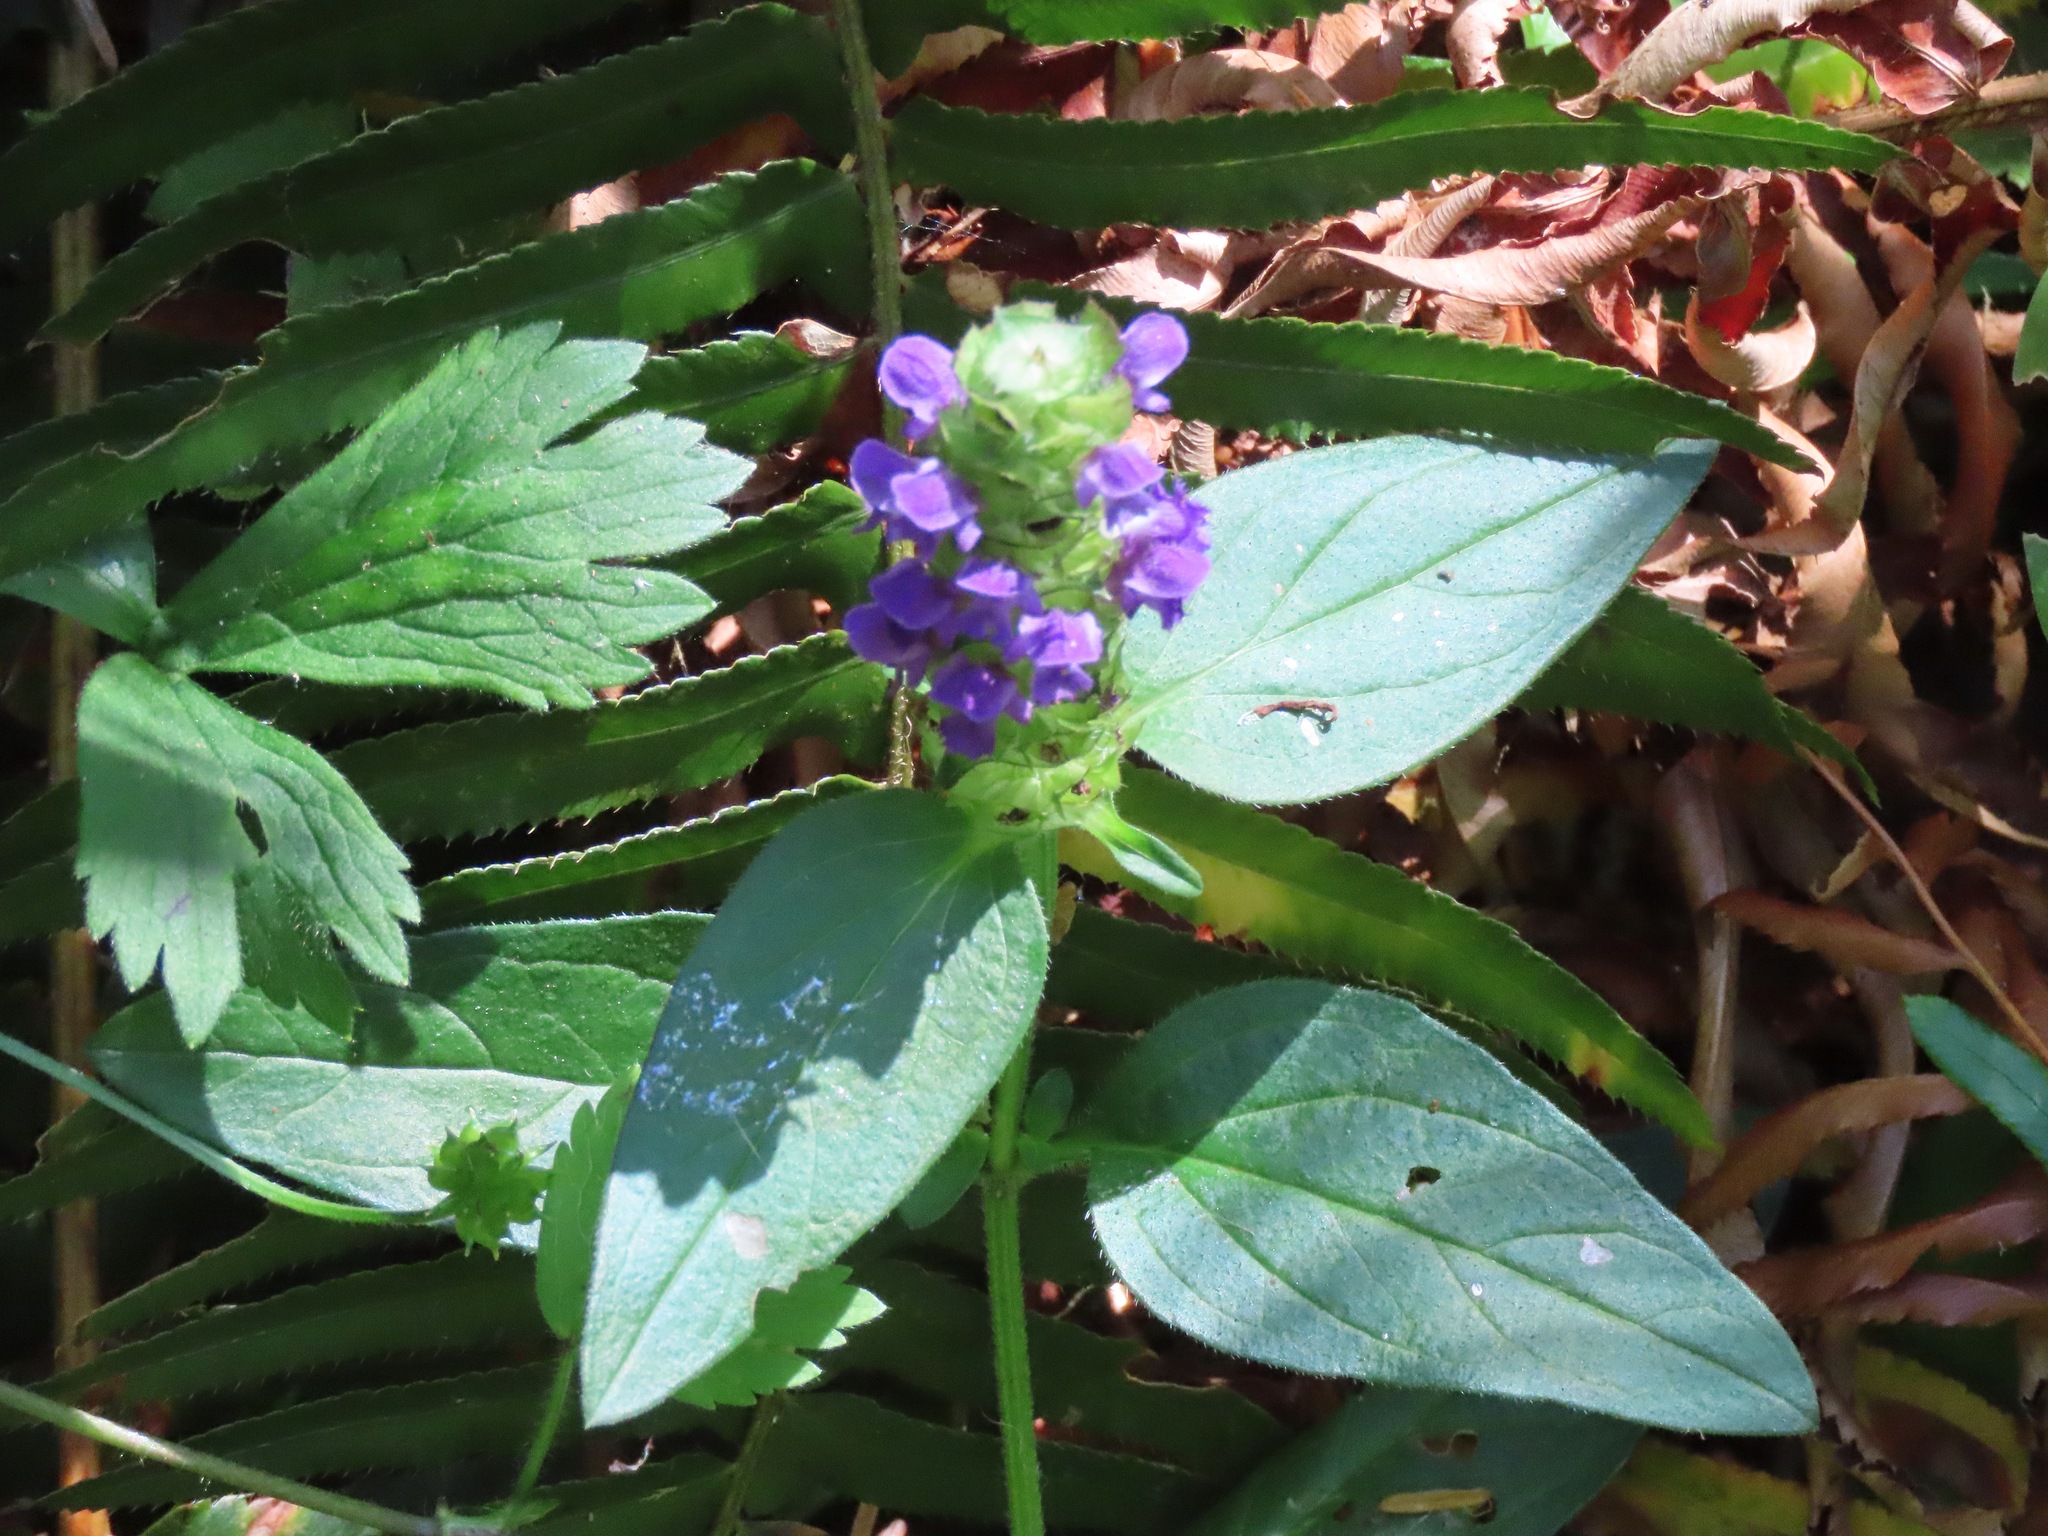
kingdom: Plantae
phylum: Tracheophyta
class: Magnoliopsida
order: Lamiales
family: Lamiaceae
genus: Prunella
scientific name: Prunella vulgaris
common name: Heal-all
